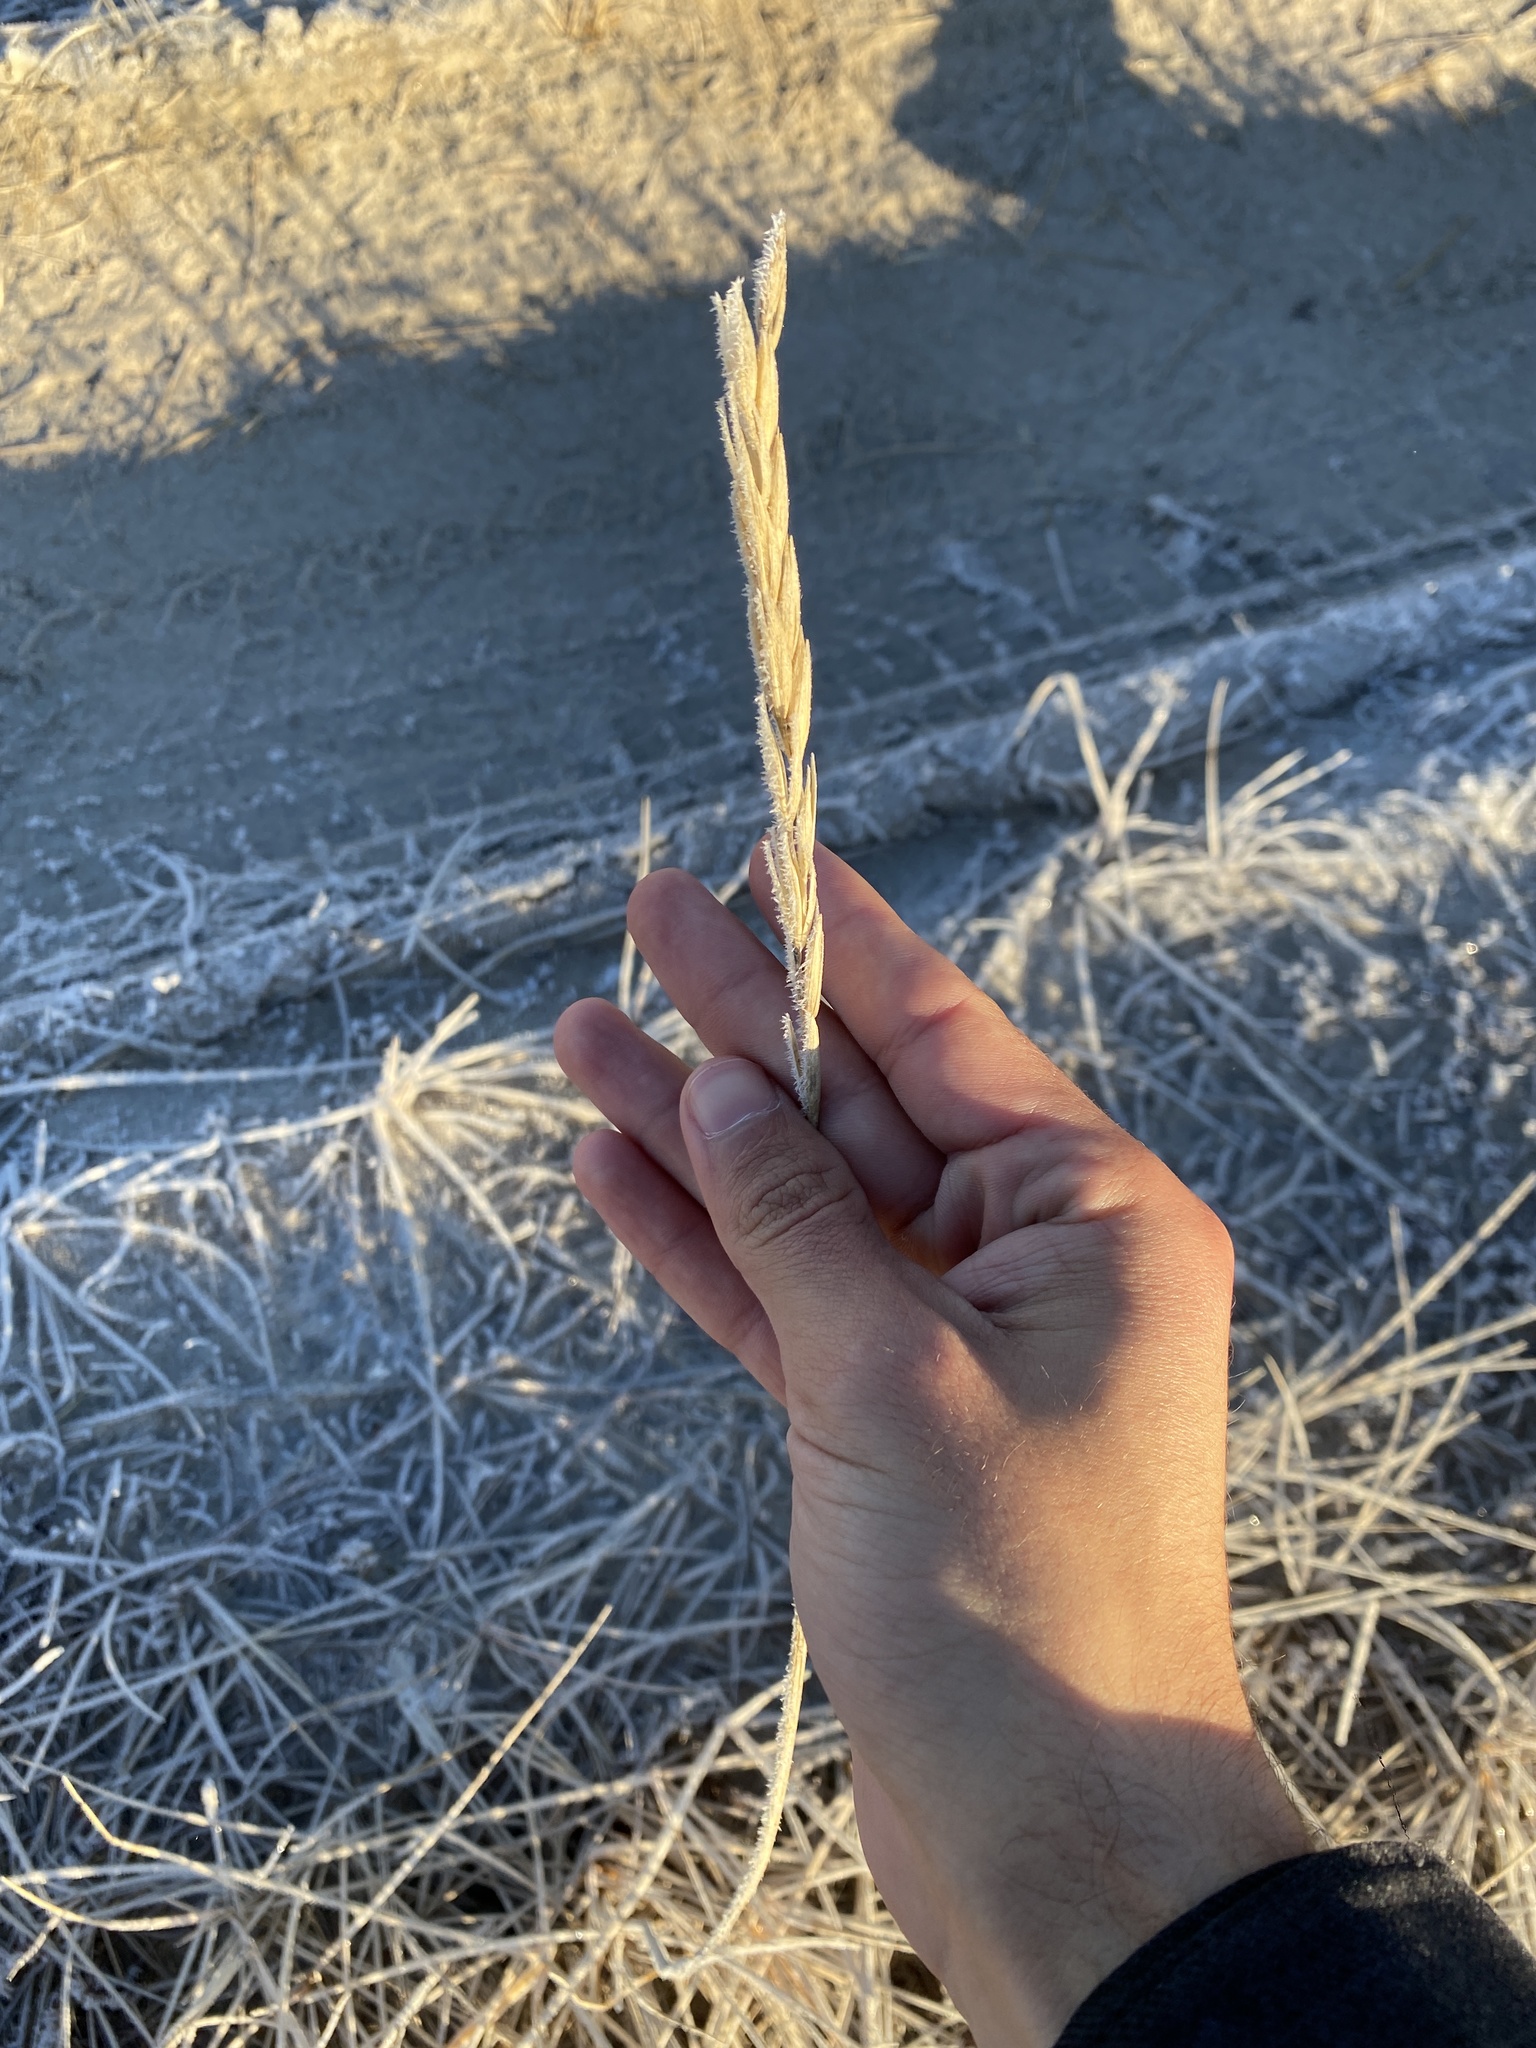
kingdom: Plantae
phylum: Tracheophyta
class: Liliopsida
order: Poales
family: Poaceae
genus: Leymus
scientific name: Leymus mollis
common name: American dune grass
